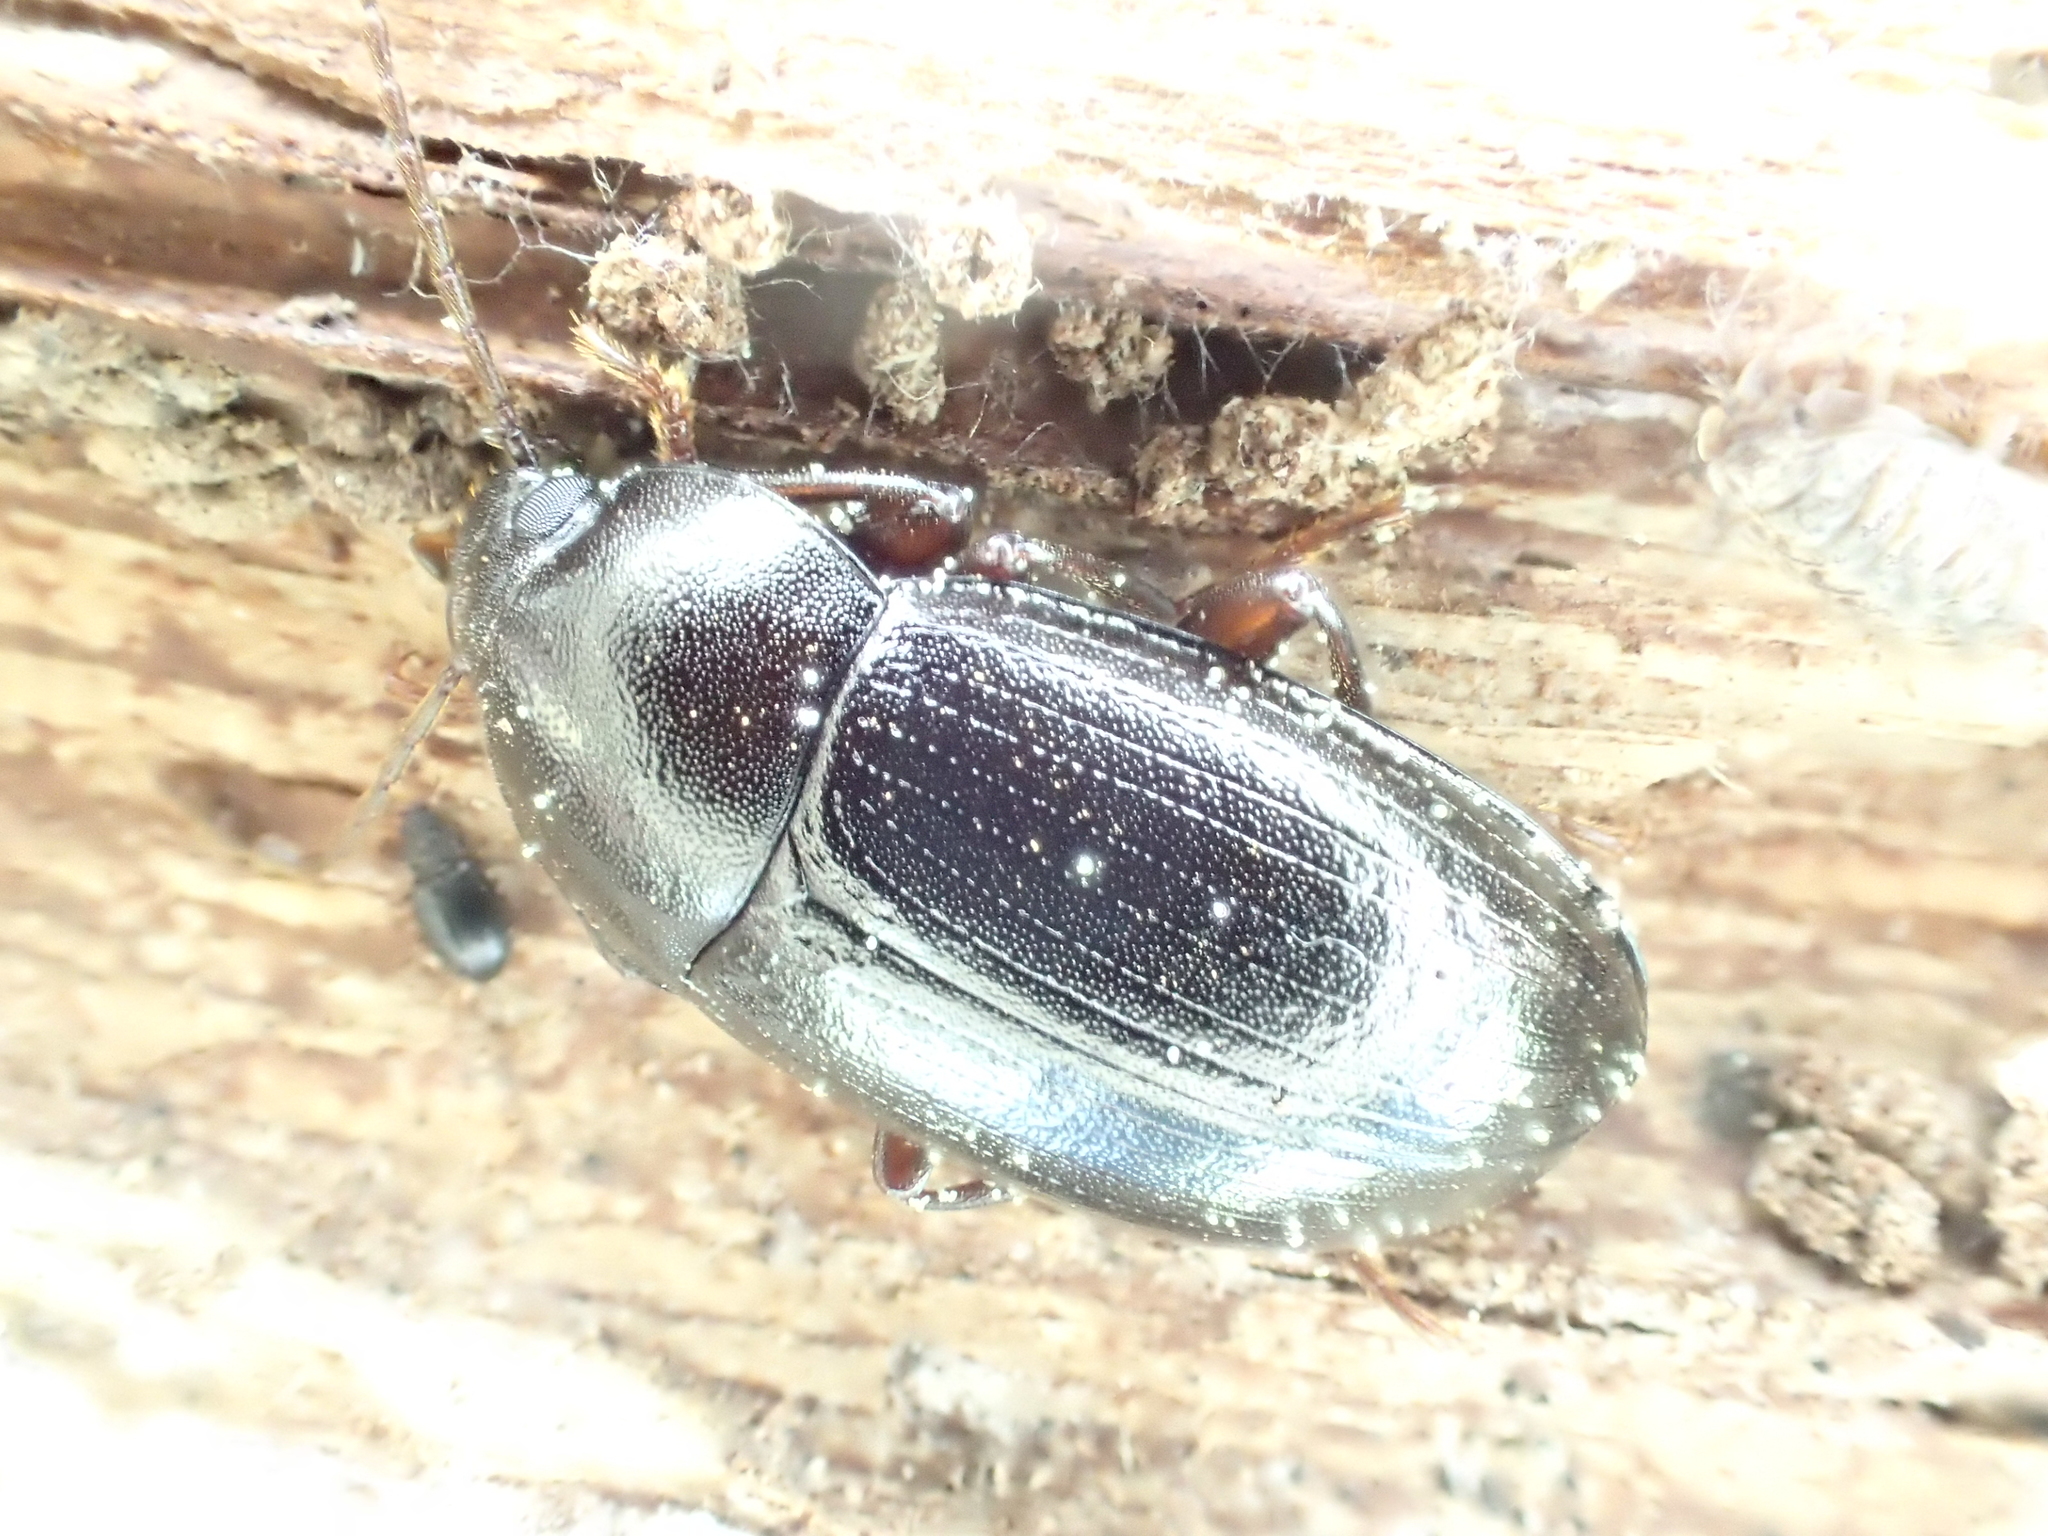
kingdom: Animalia
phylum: Arthropoda
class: Insecta
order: Coleoptera
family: Tenebrionidae
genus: Nalassus
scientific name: Nalassus laevioctostriatus
